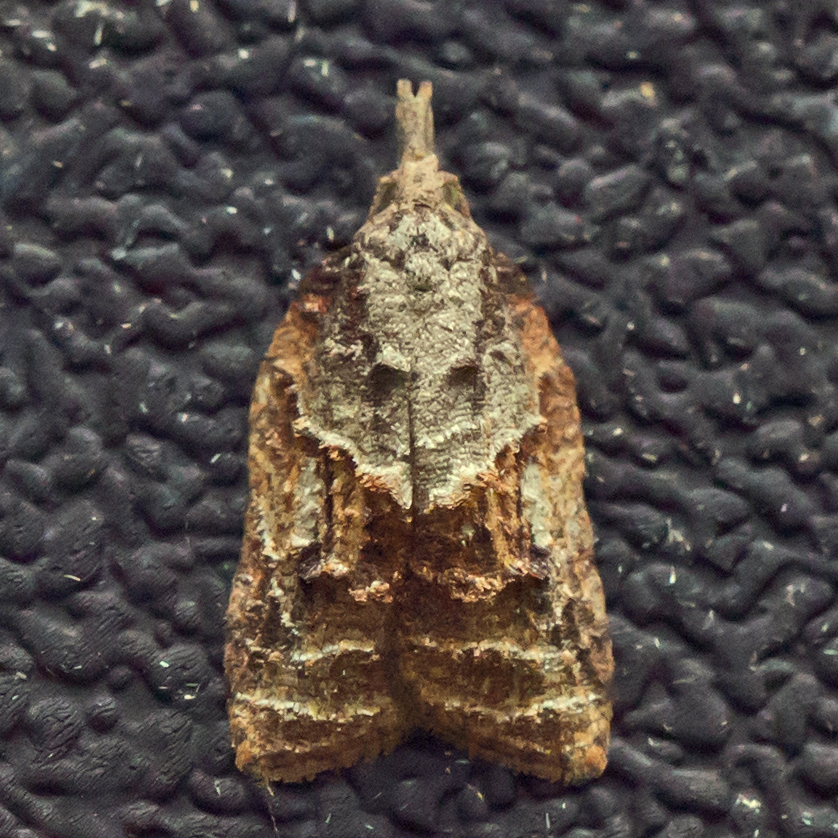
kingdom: Animalia
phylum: Arthropoda
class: Insecta
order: Lepidoptera
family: Tortricidae
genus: Platynota
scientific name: Platynota idaeusalis
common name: Tufted apple bud moth
